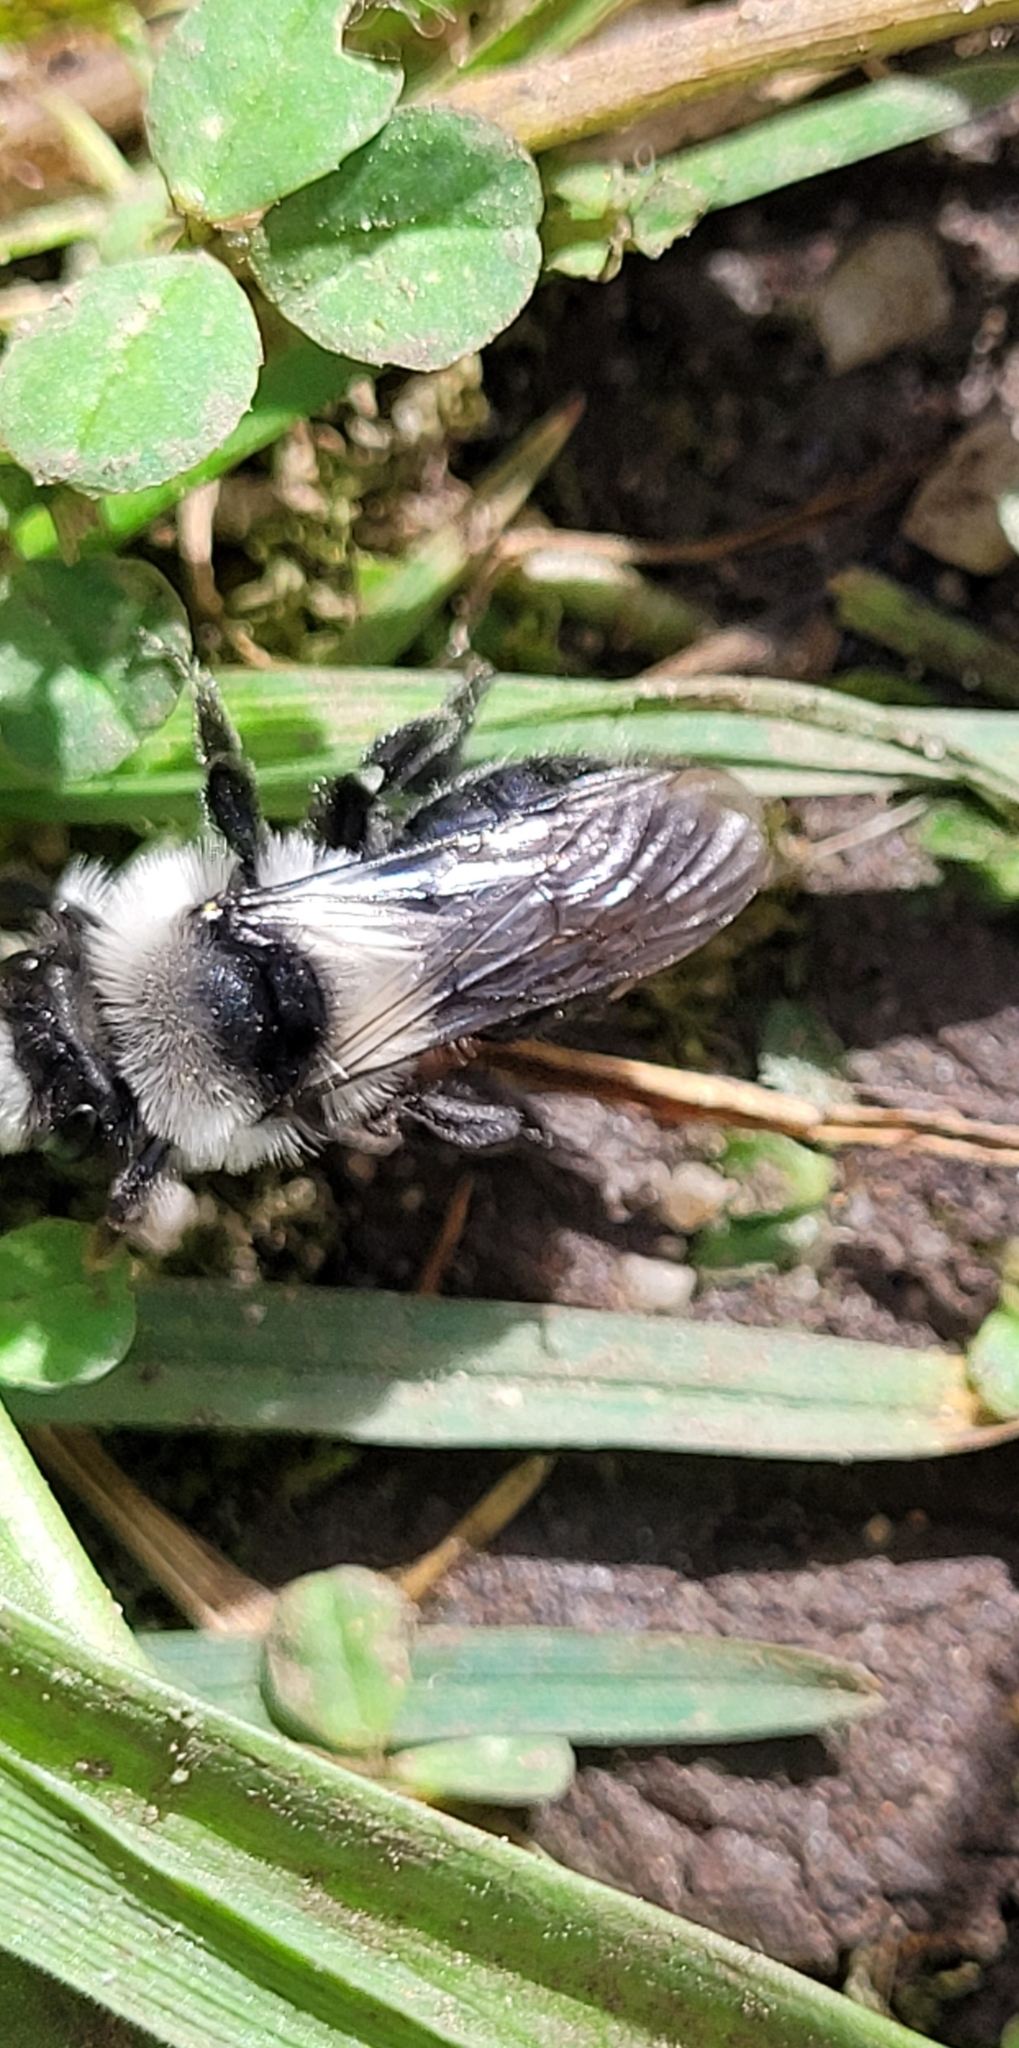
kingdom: Animalia
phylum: Arthropoda
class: Insecta
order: Hymenoptera
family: Andrenidae
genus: Andrena
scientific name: Andrena cineraria
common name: Ashy mining bee
